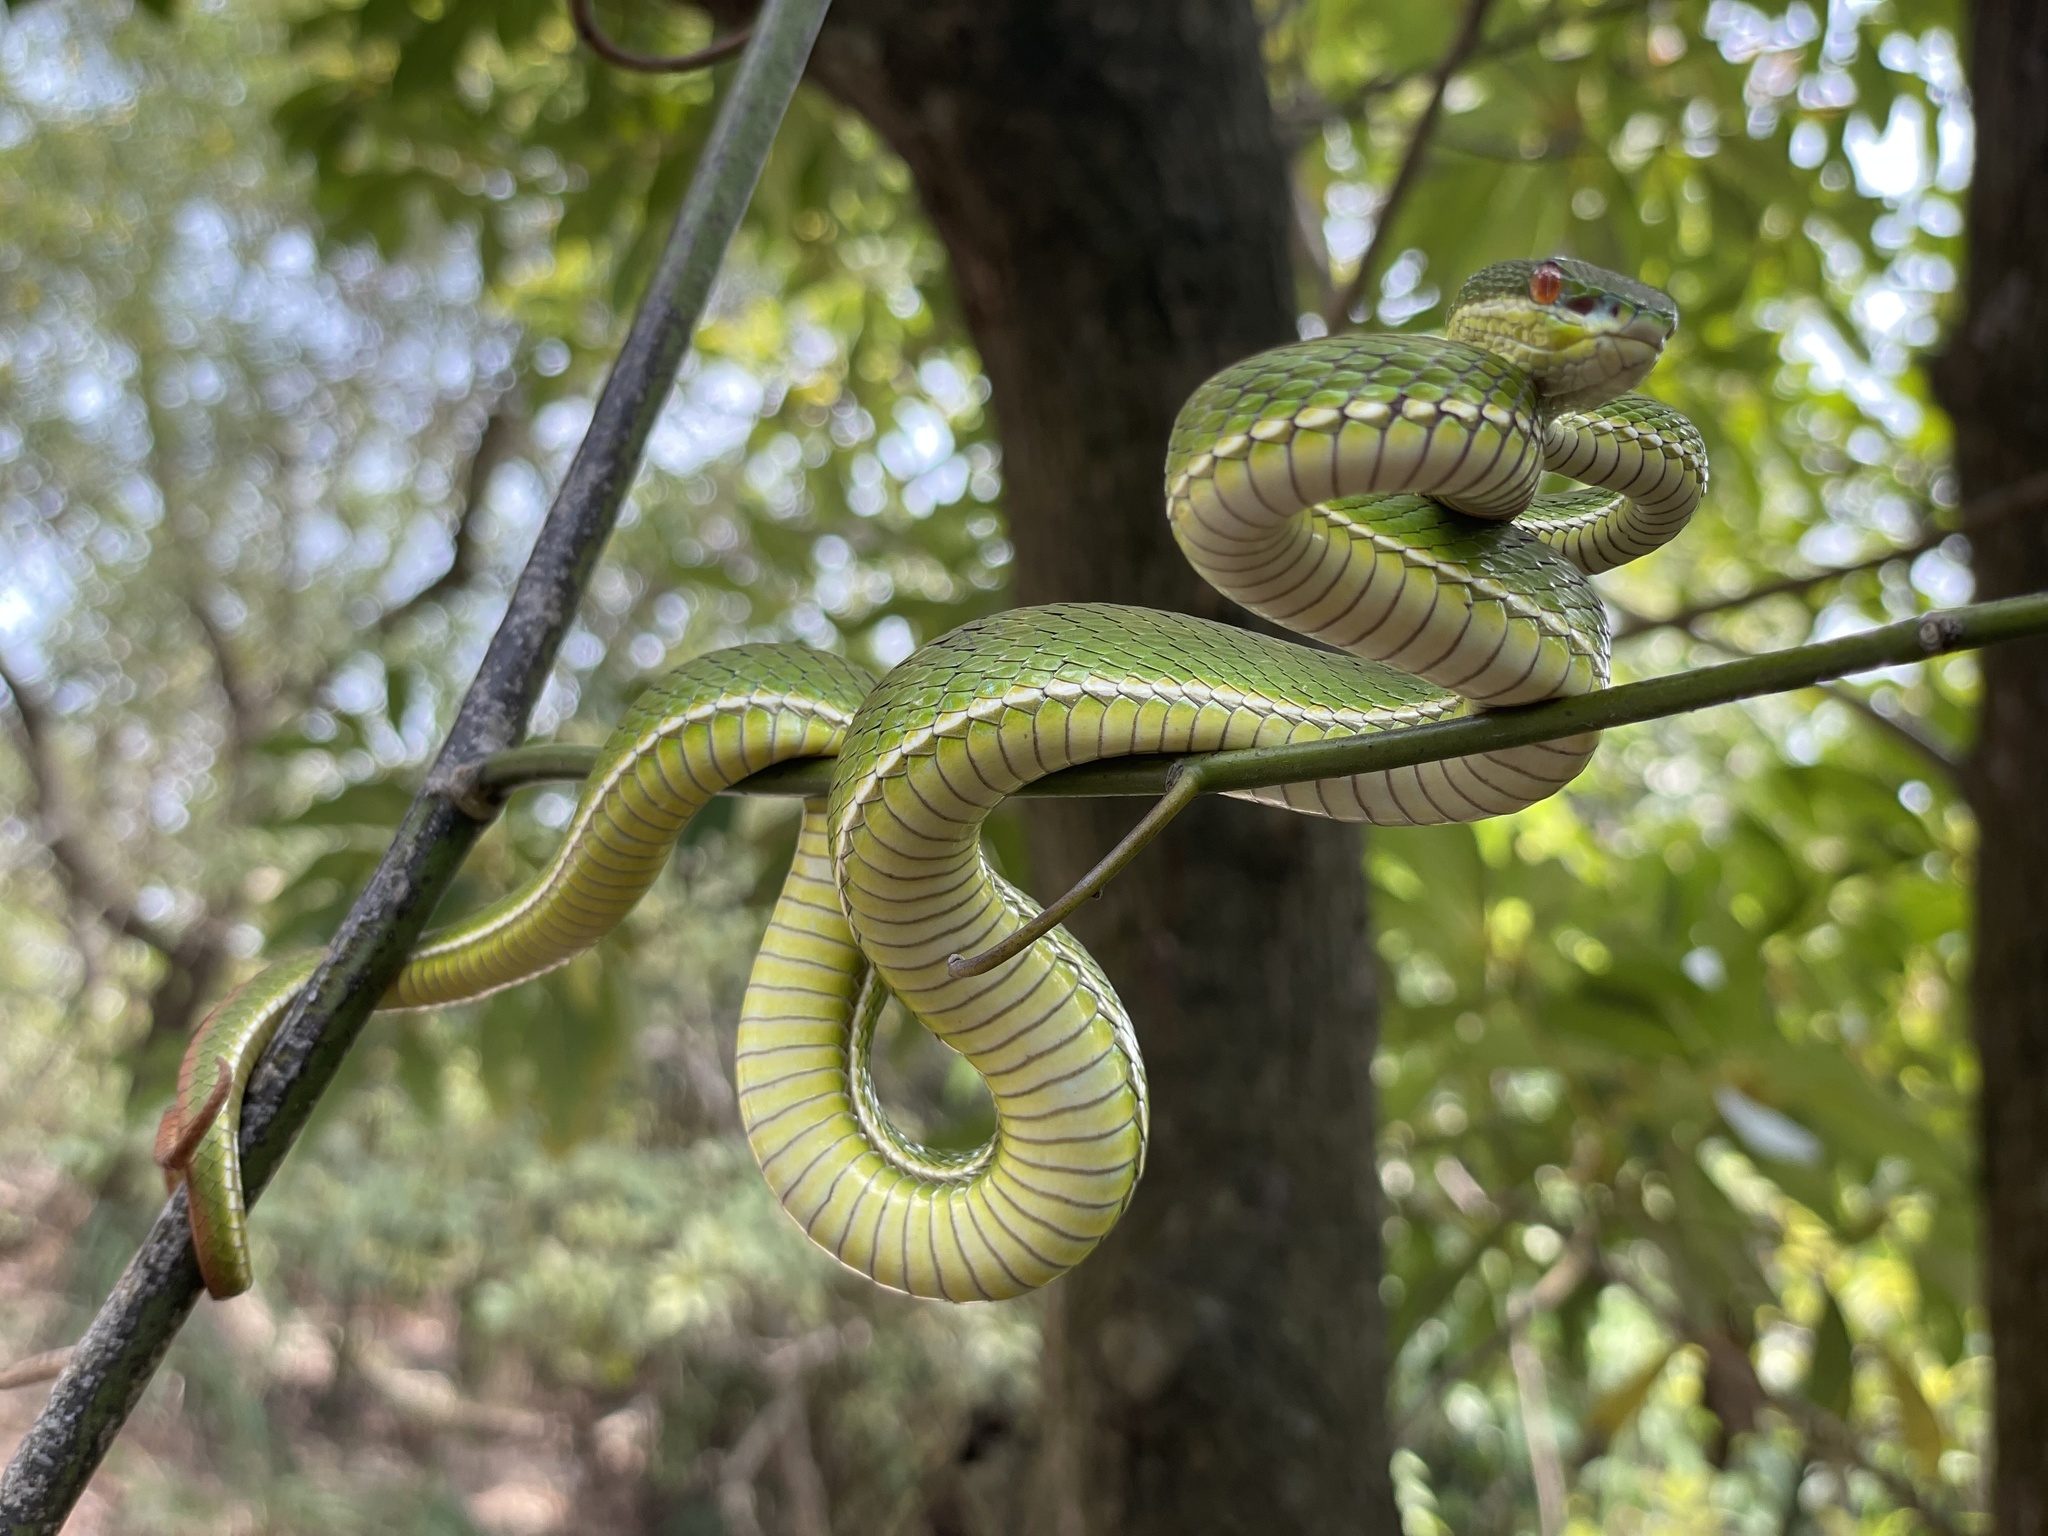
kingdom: Animalia
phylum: Chordata
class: Squamata
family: Viperidae
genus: Trimeresurus
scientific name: Trimeresurus albolabris
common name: White-lipped pitviper
